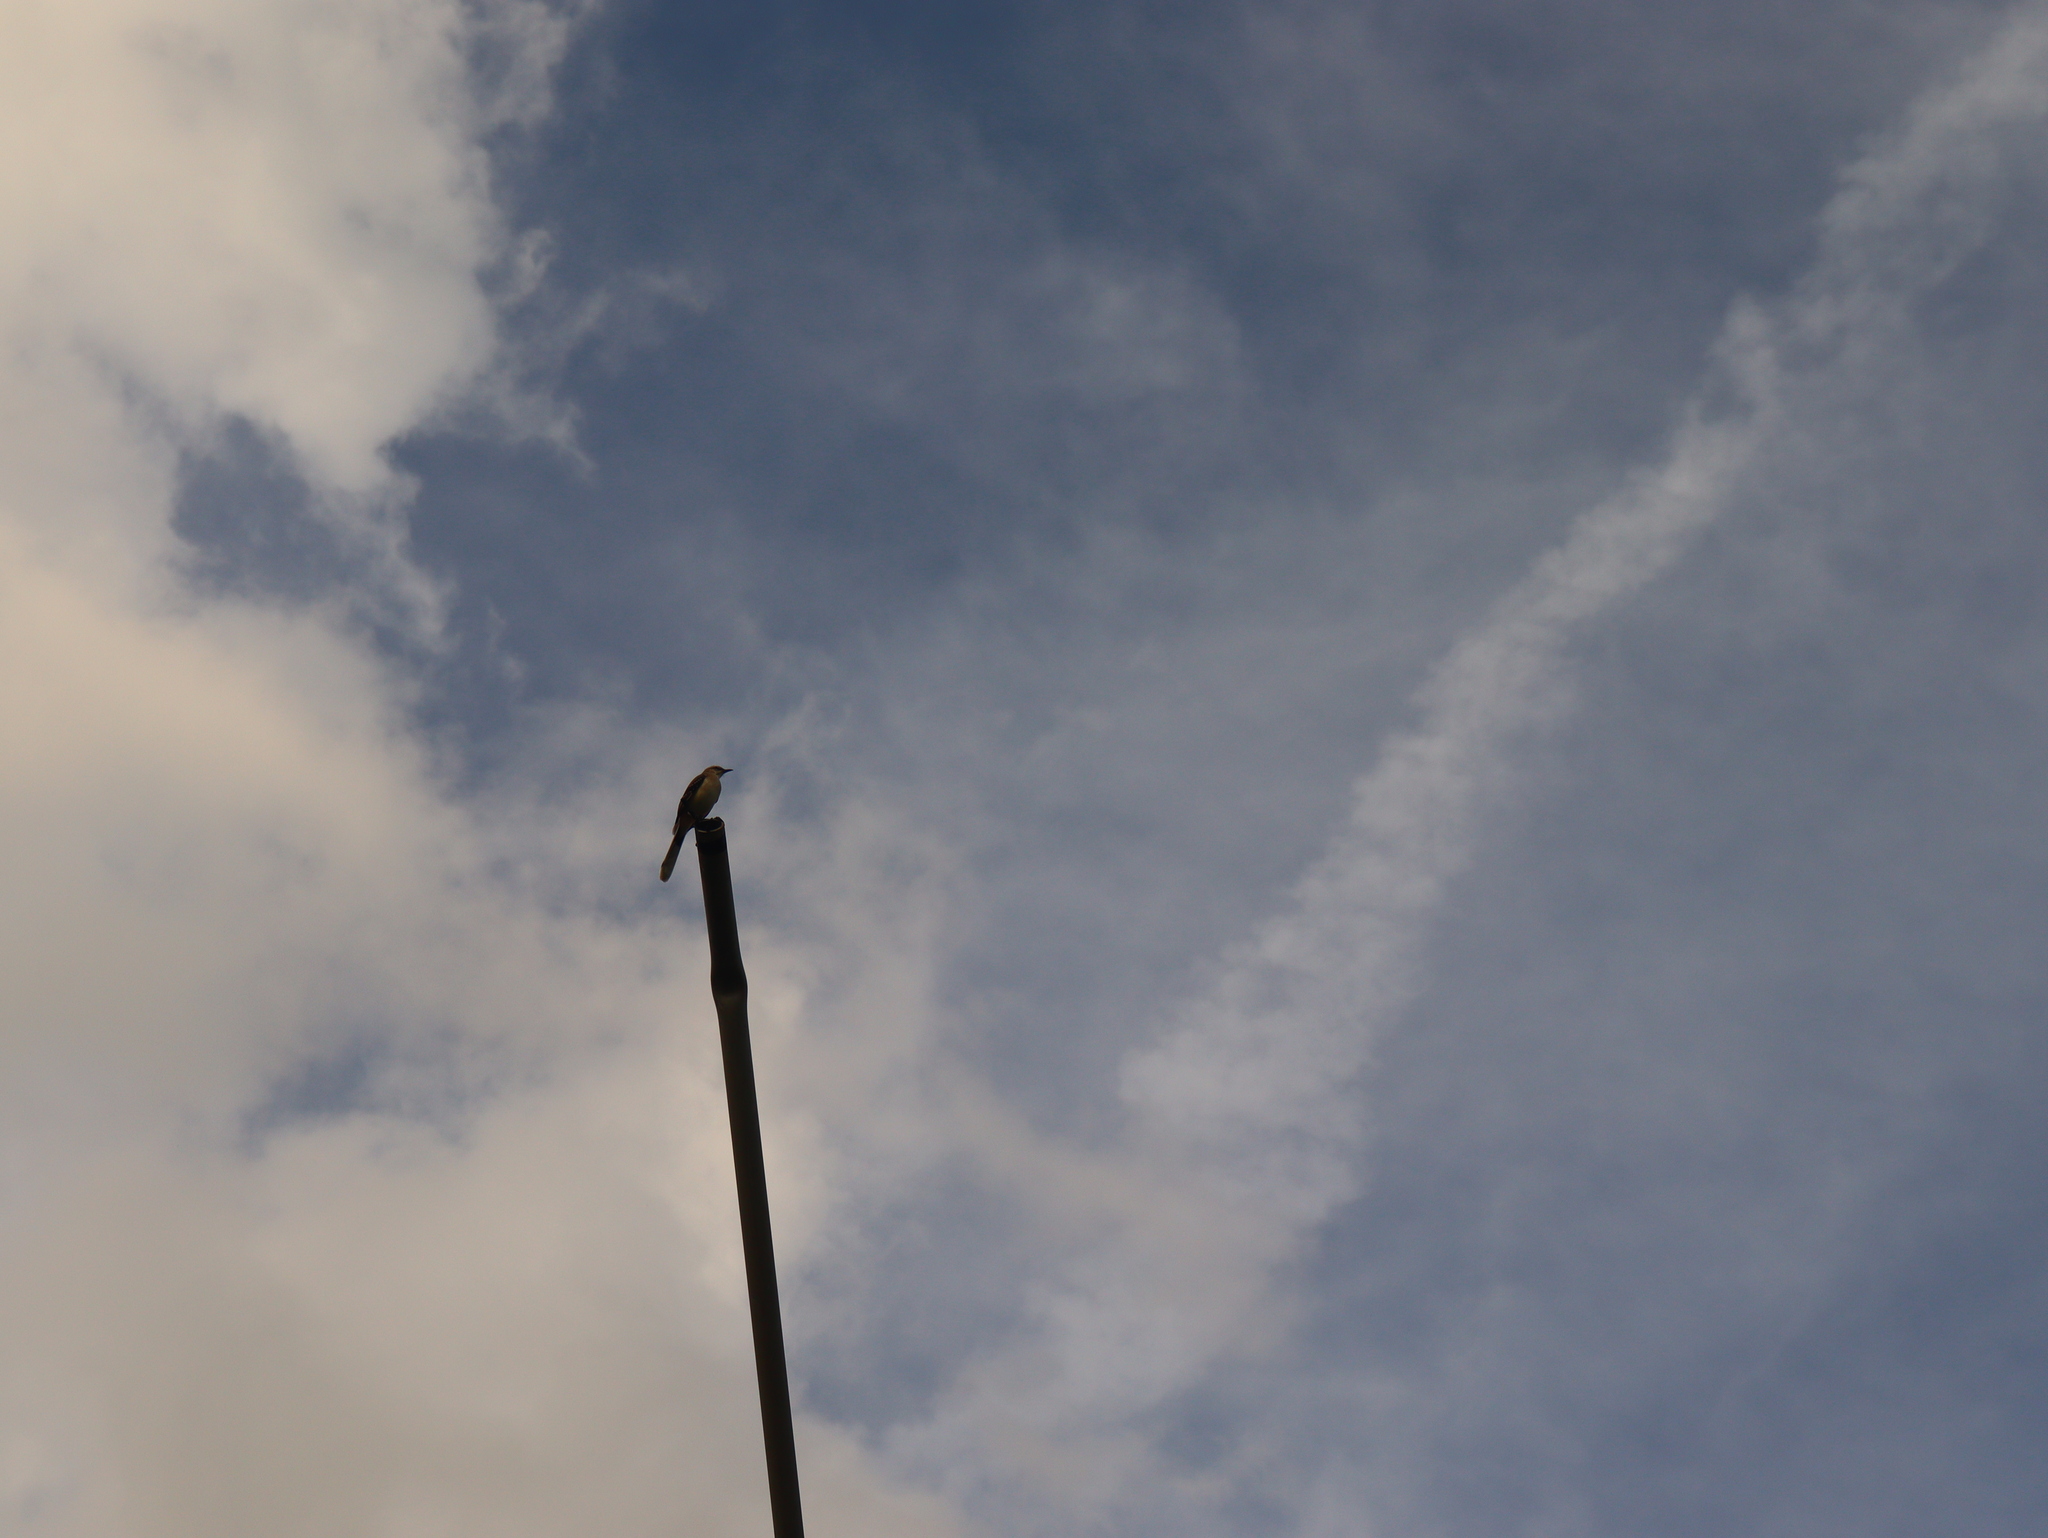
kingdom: Animalia
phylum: Chordata
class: Aves
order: Passeriformes
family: Mimidae
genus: Mimus
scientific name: Mimus gilvus
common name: Tropical mockingbird
